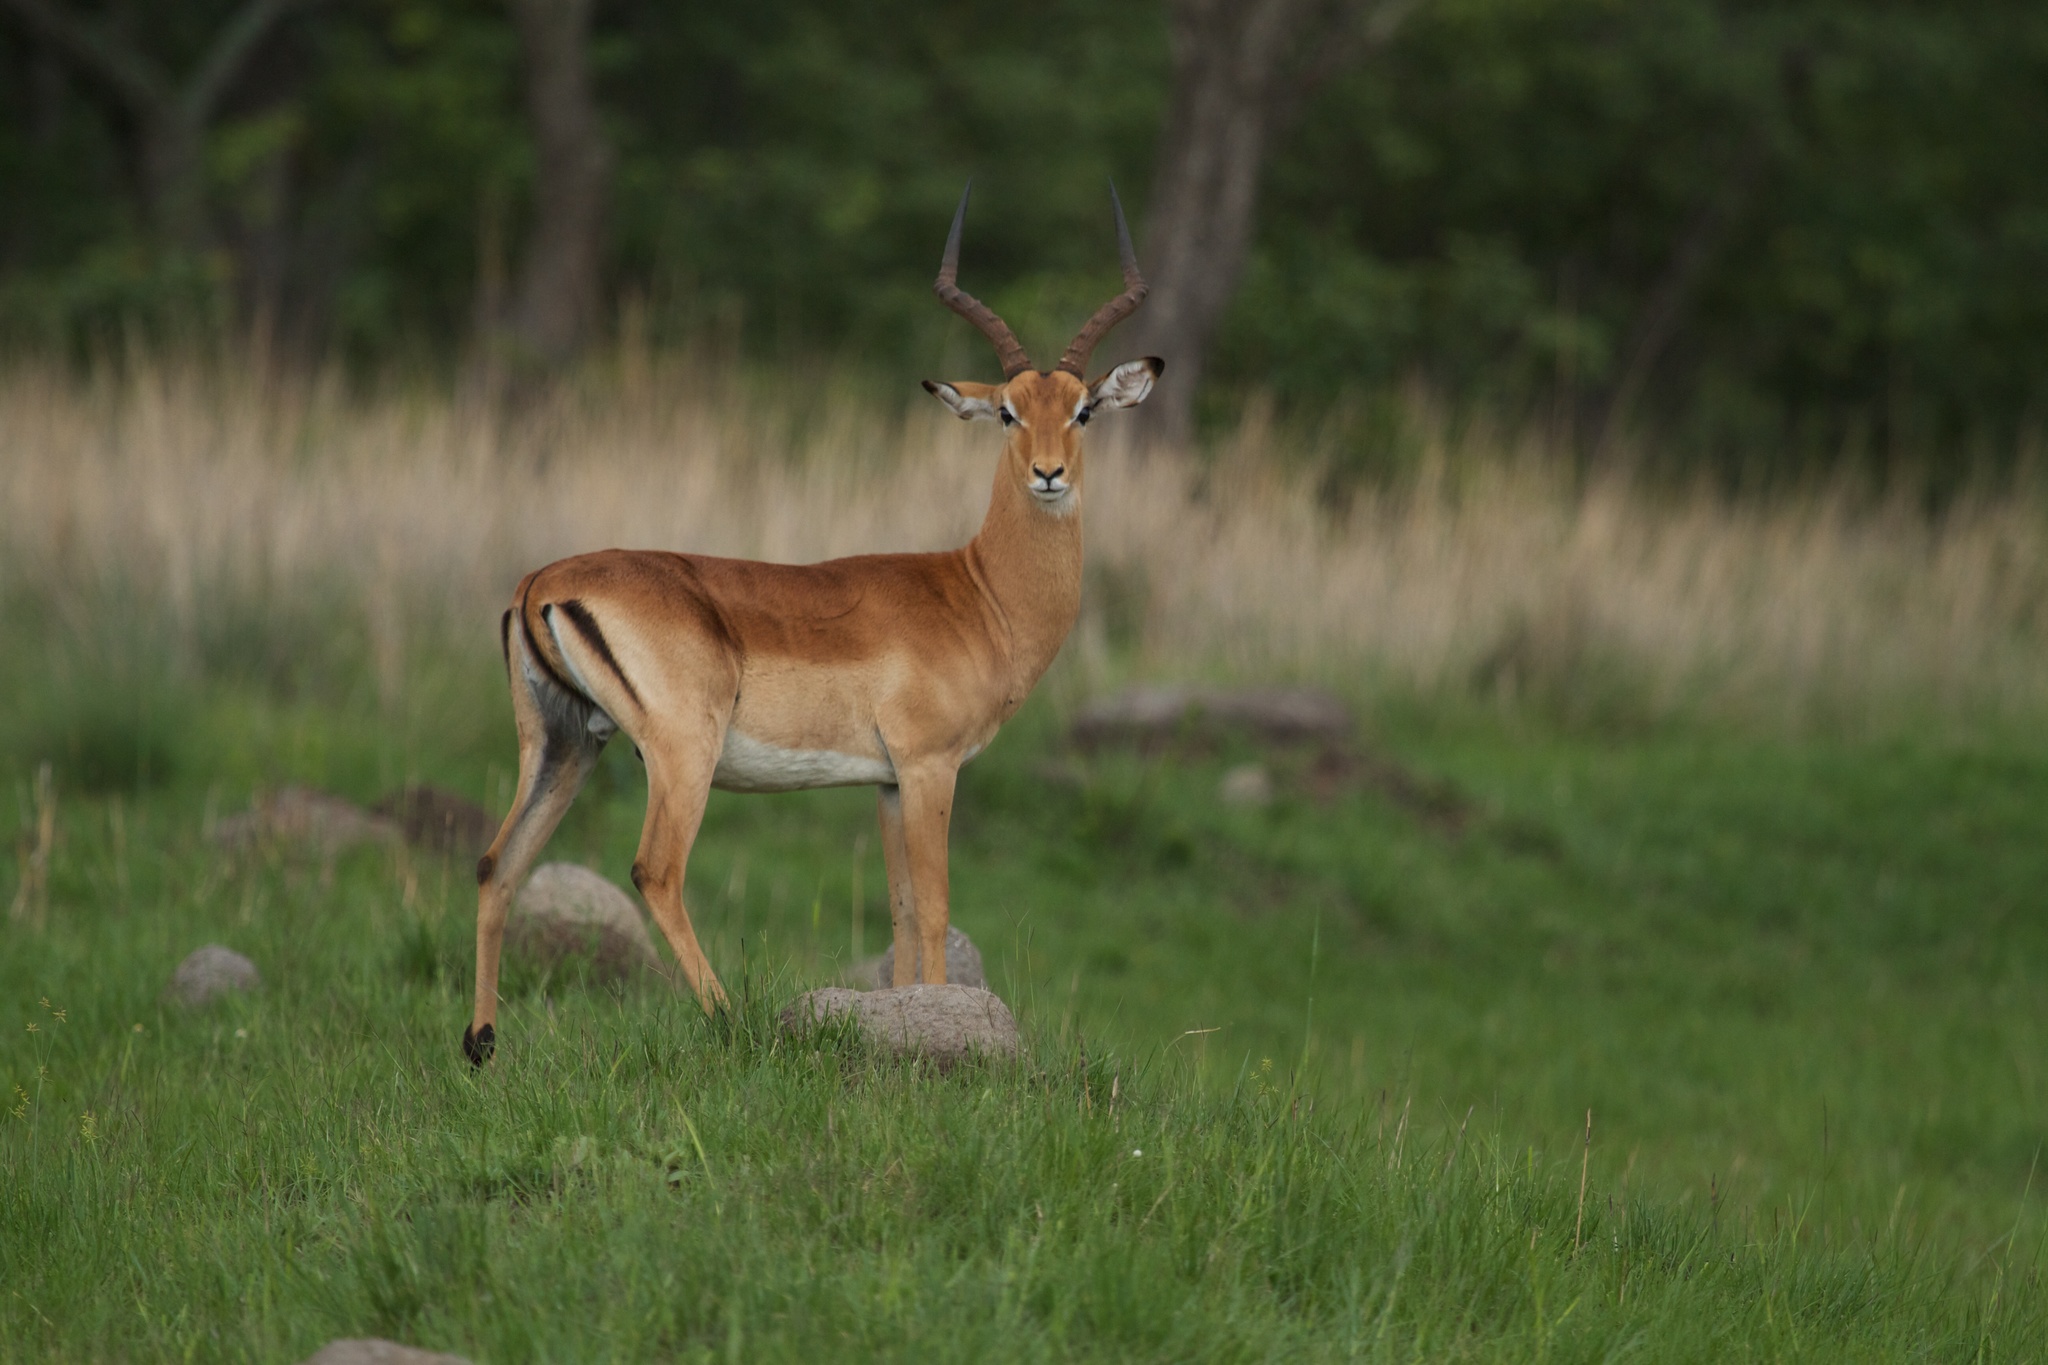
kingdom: Animalia
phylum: Chordata
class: Mammalia
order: Artiodactyla
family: Bovidae
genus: Aepyceros
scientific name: Aepyceros melampus
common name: Impala
